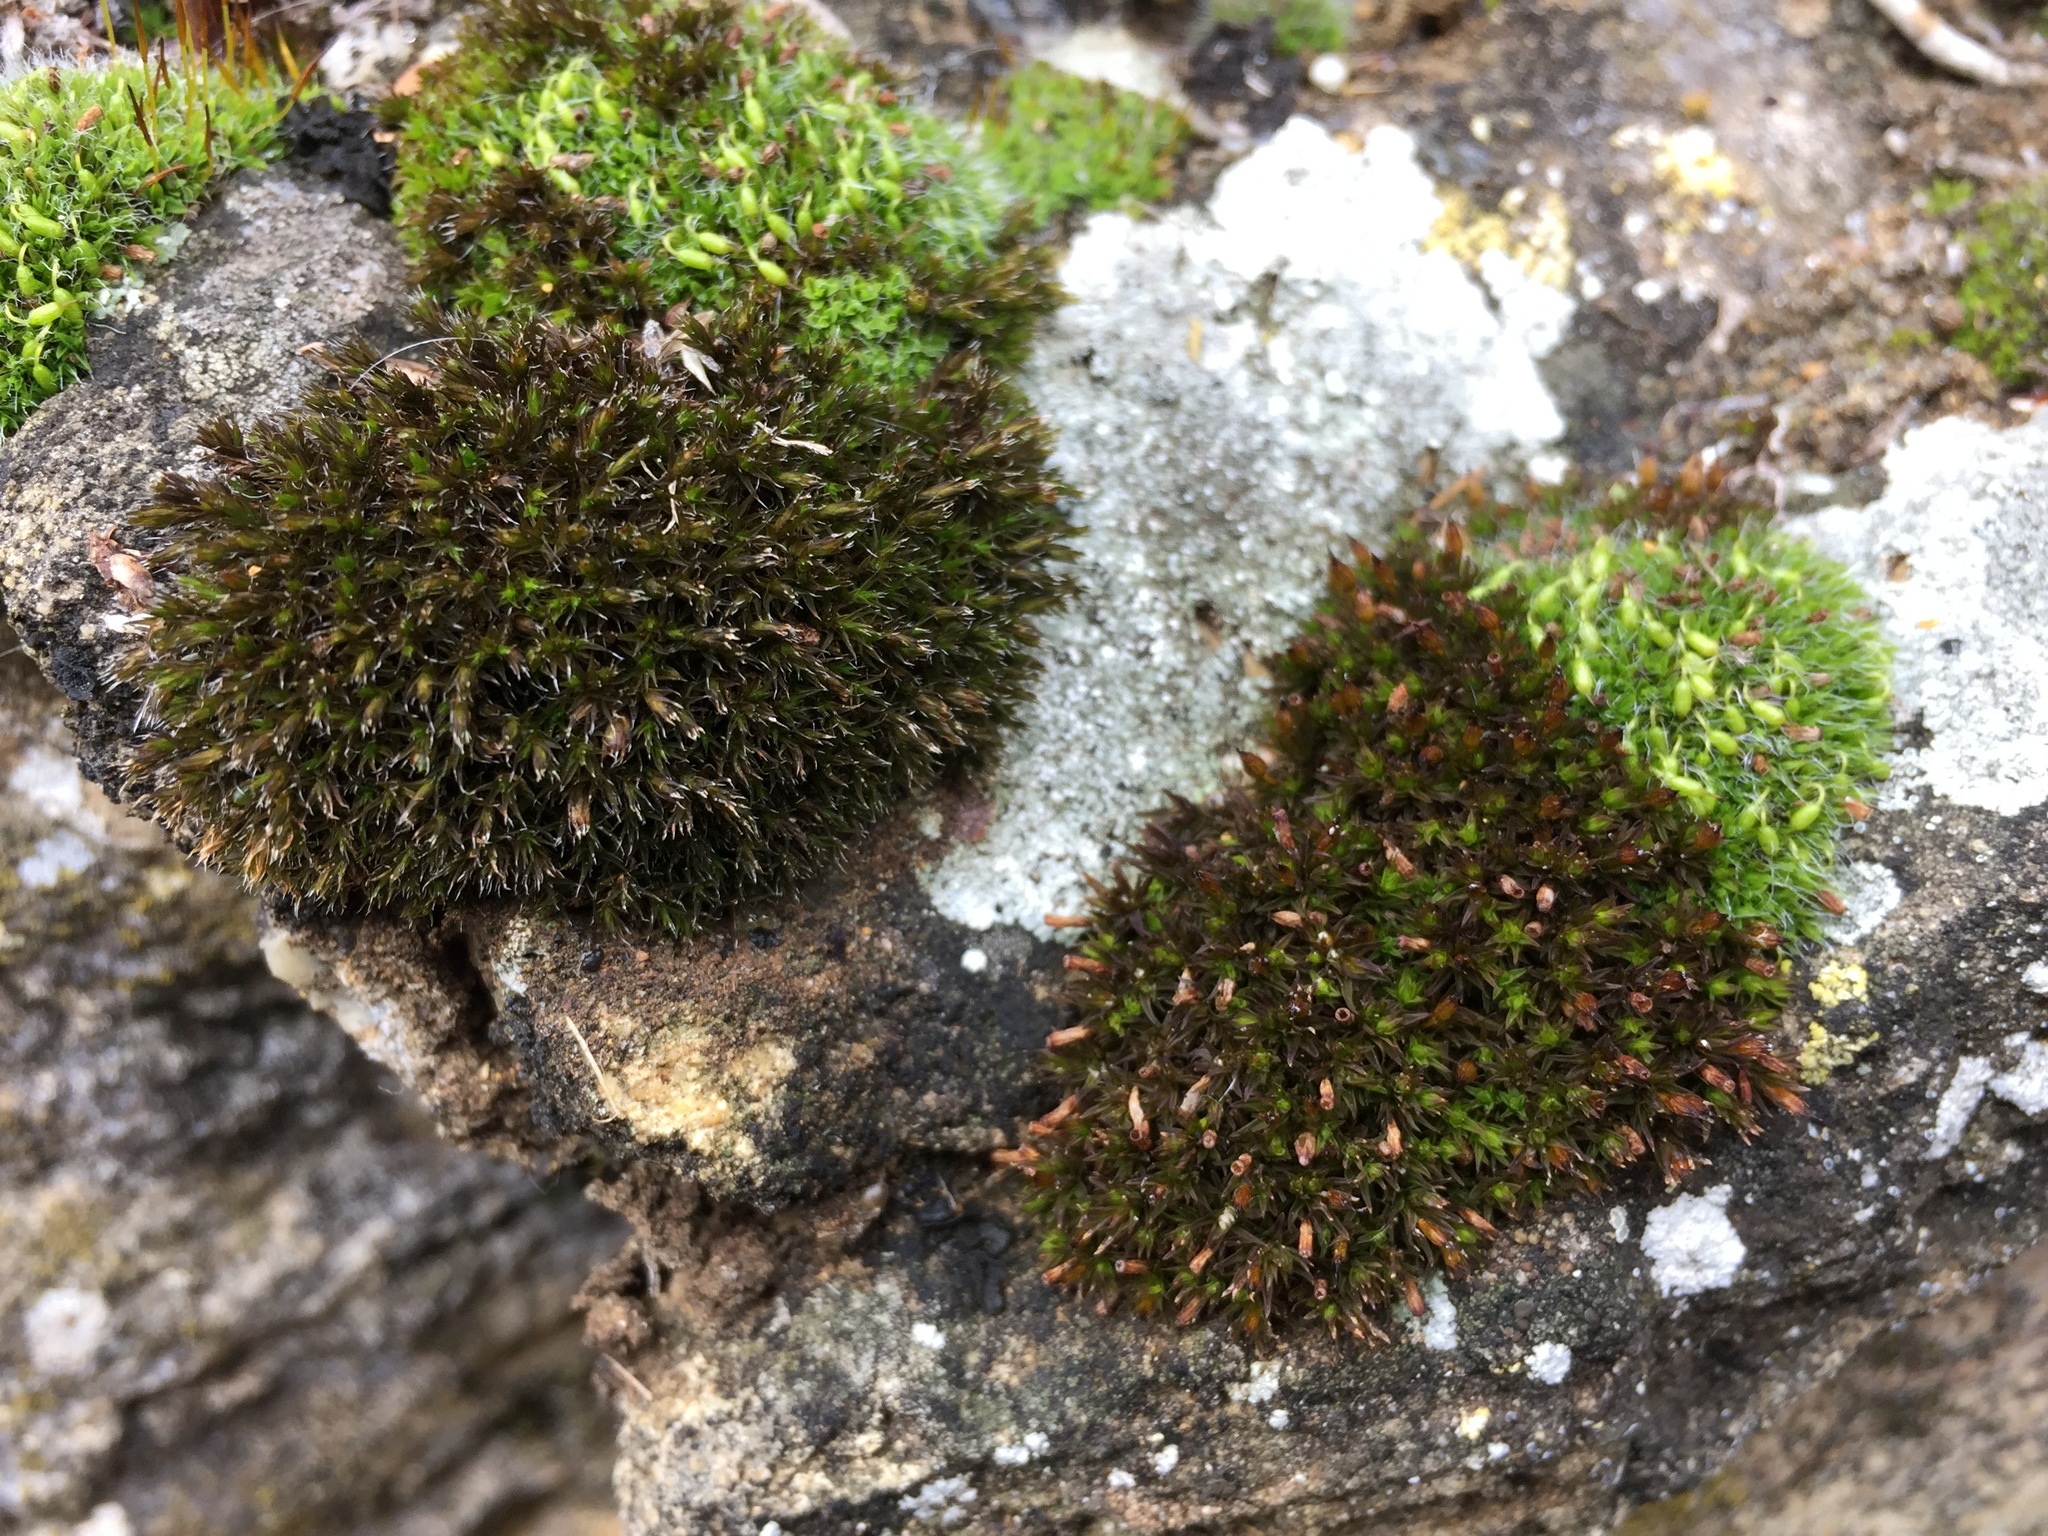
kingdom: Plantae
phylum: Bryophyta
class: Bryopsida
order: Orthotrichales
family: Orthotrichaceae
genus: Orthotrichum
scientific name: Orthotrichum anomalum
